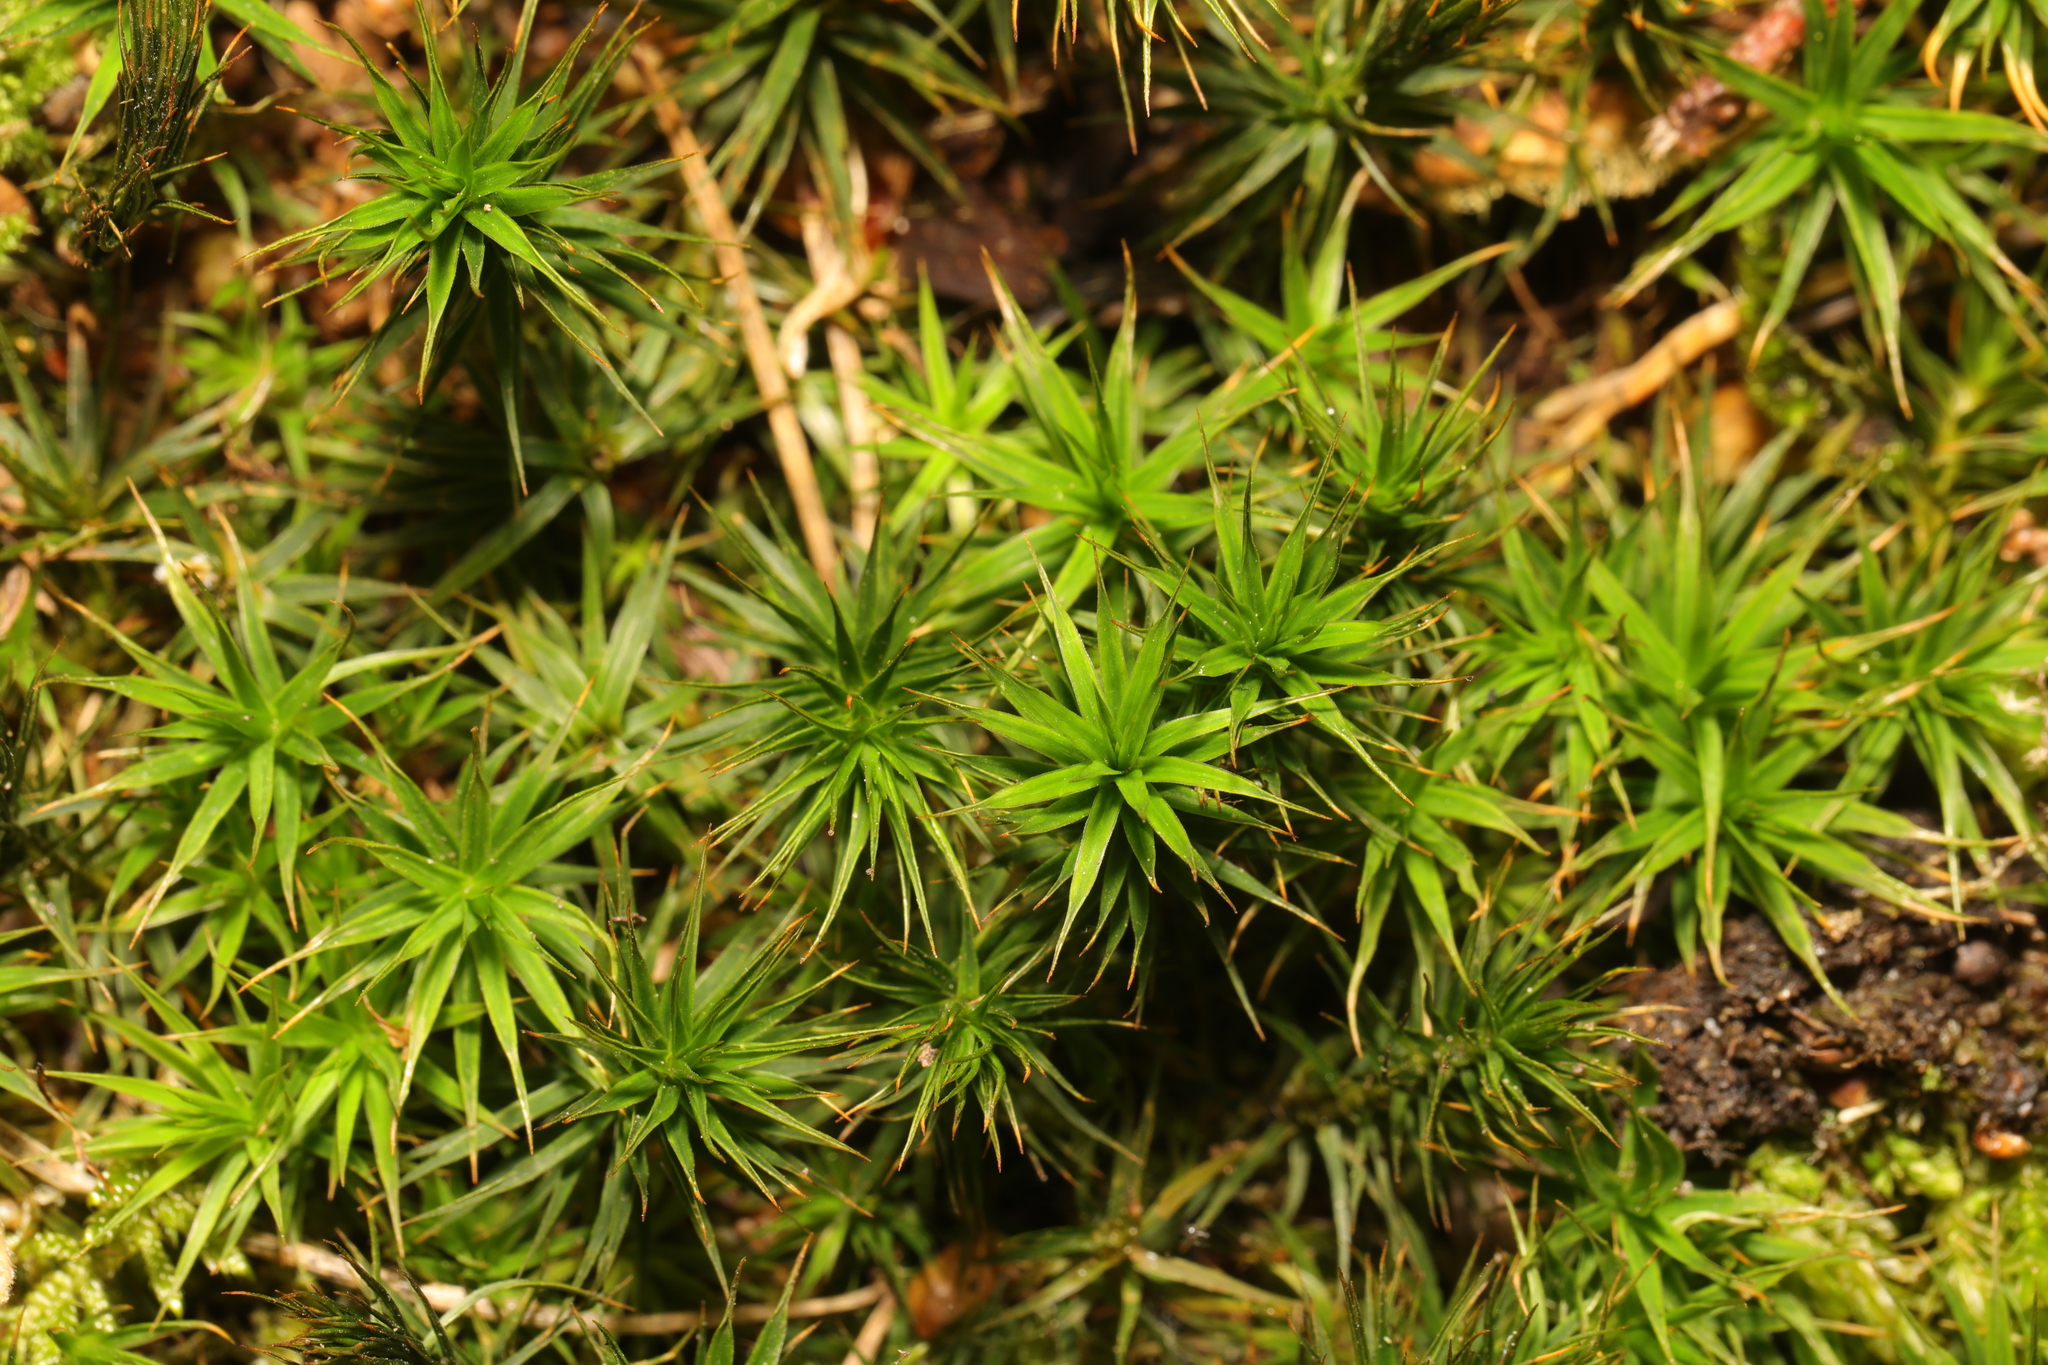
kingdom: Plantae
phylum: Bryophyta
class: Polytrichopsida
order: Polytrichales
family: Polytrichaceae
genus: Polytrichum
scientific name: Polytrichum formosum
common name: Bank haircap moss
